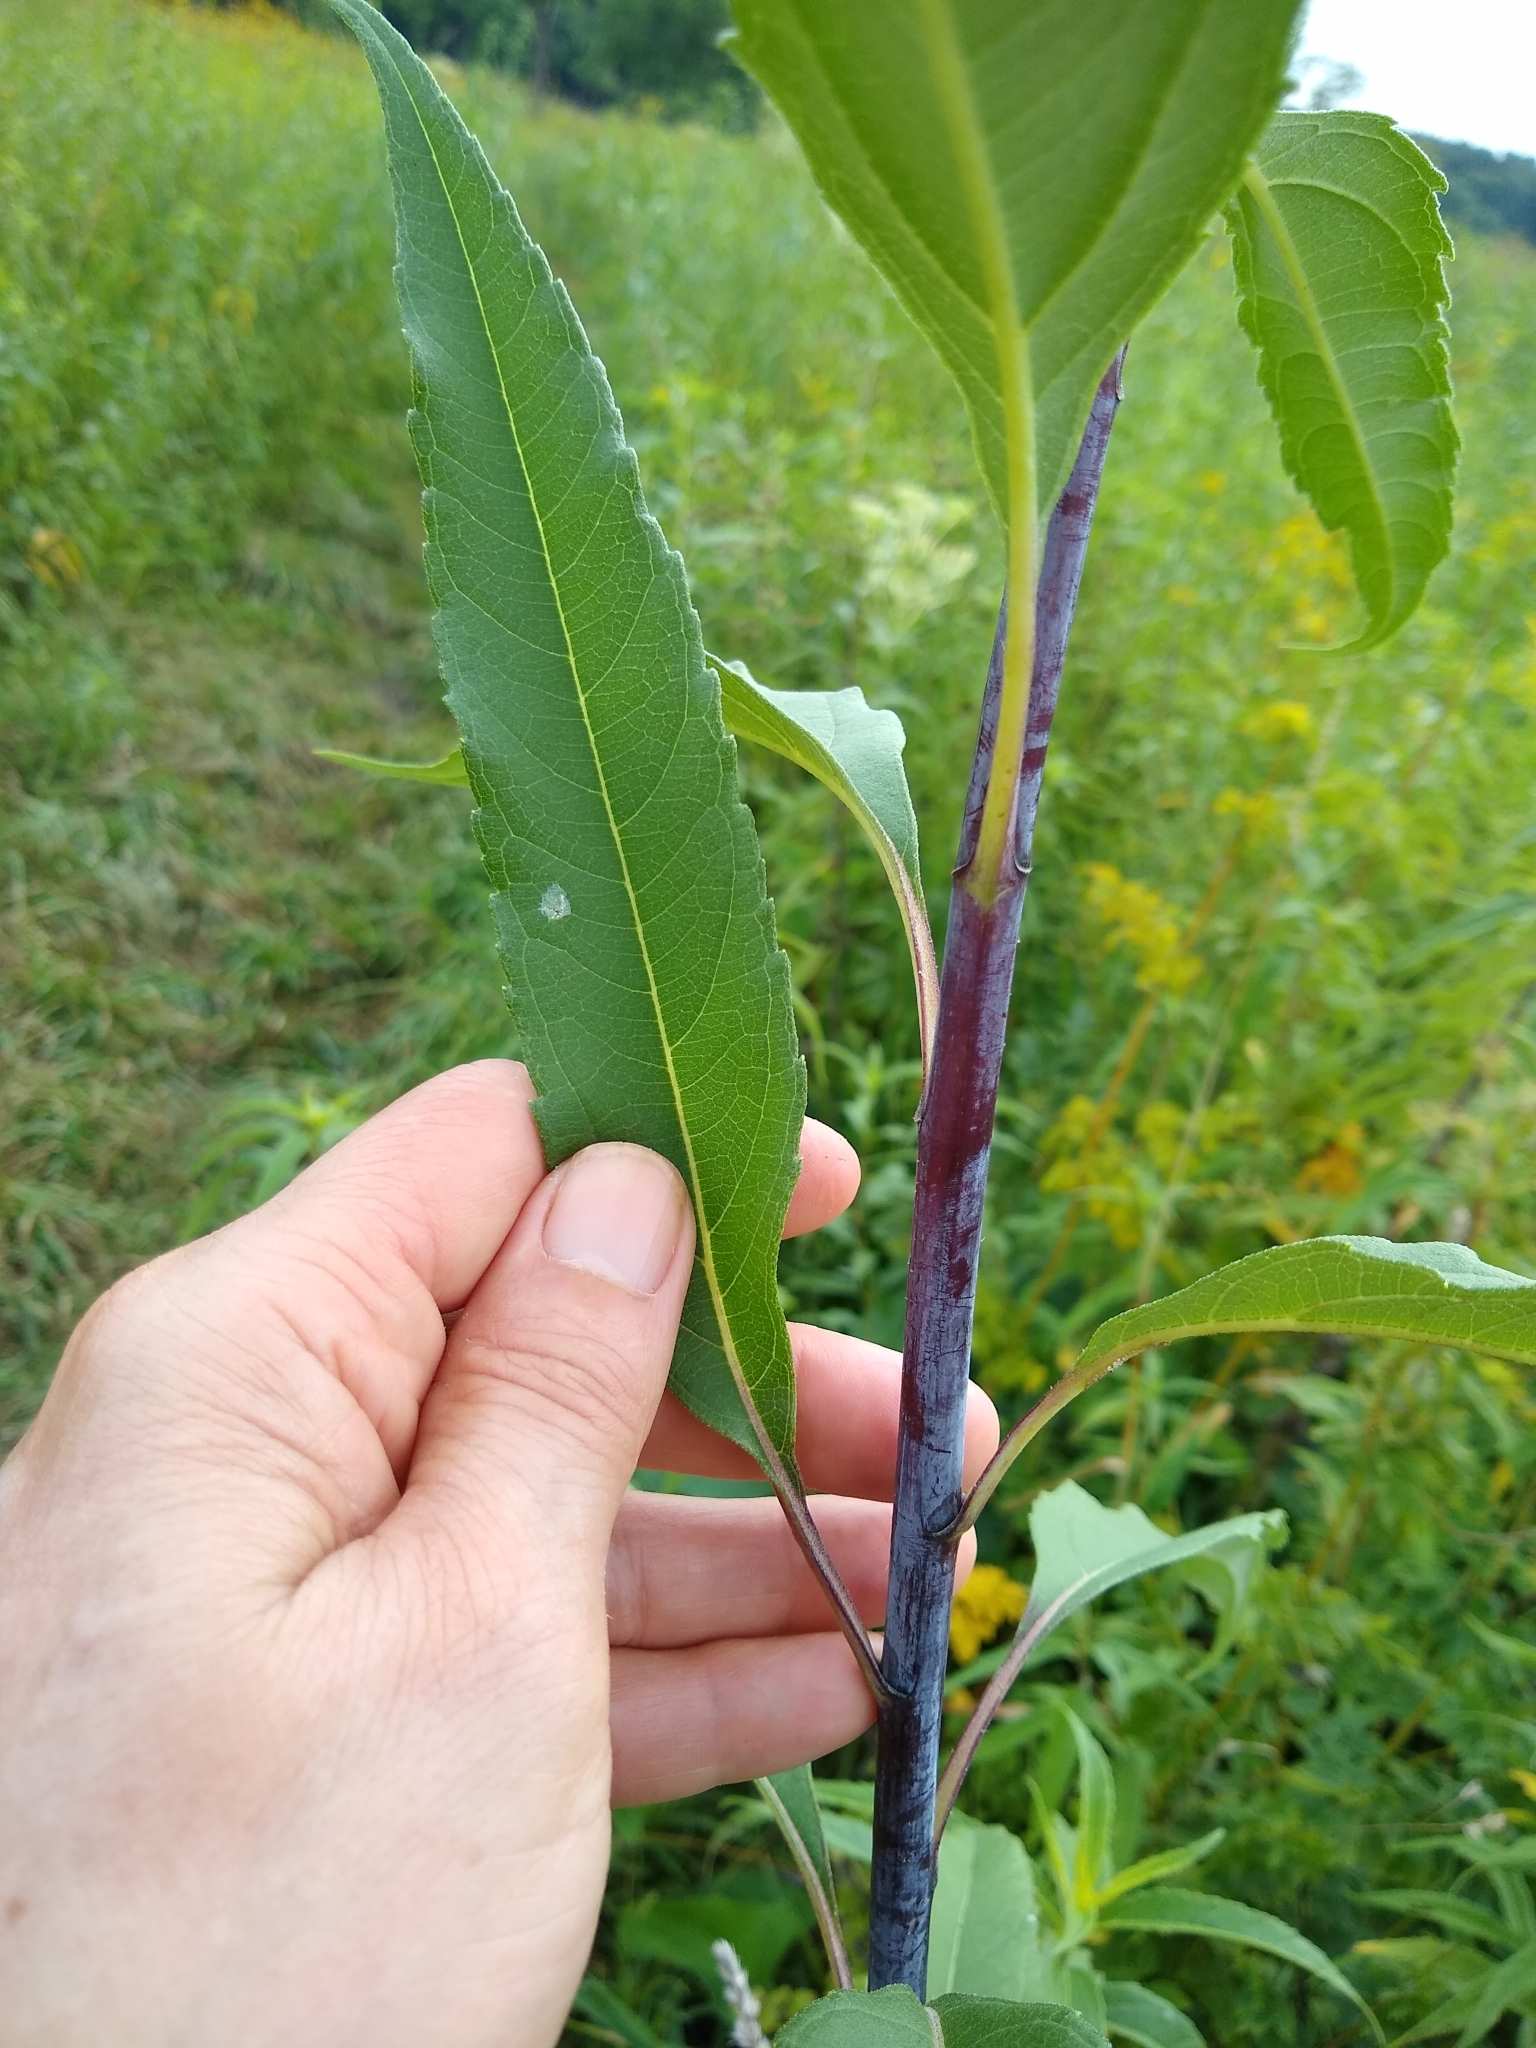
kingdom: Plantae
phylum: Tracheophyta
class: Magnoliopsida
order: Asterales
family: Asteraceae
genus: Helianthus
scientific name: Helianthus grosseserratus
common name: Sawtooth sunflower
